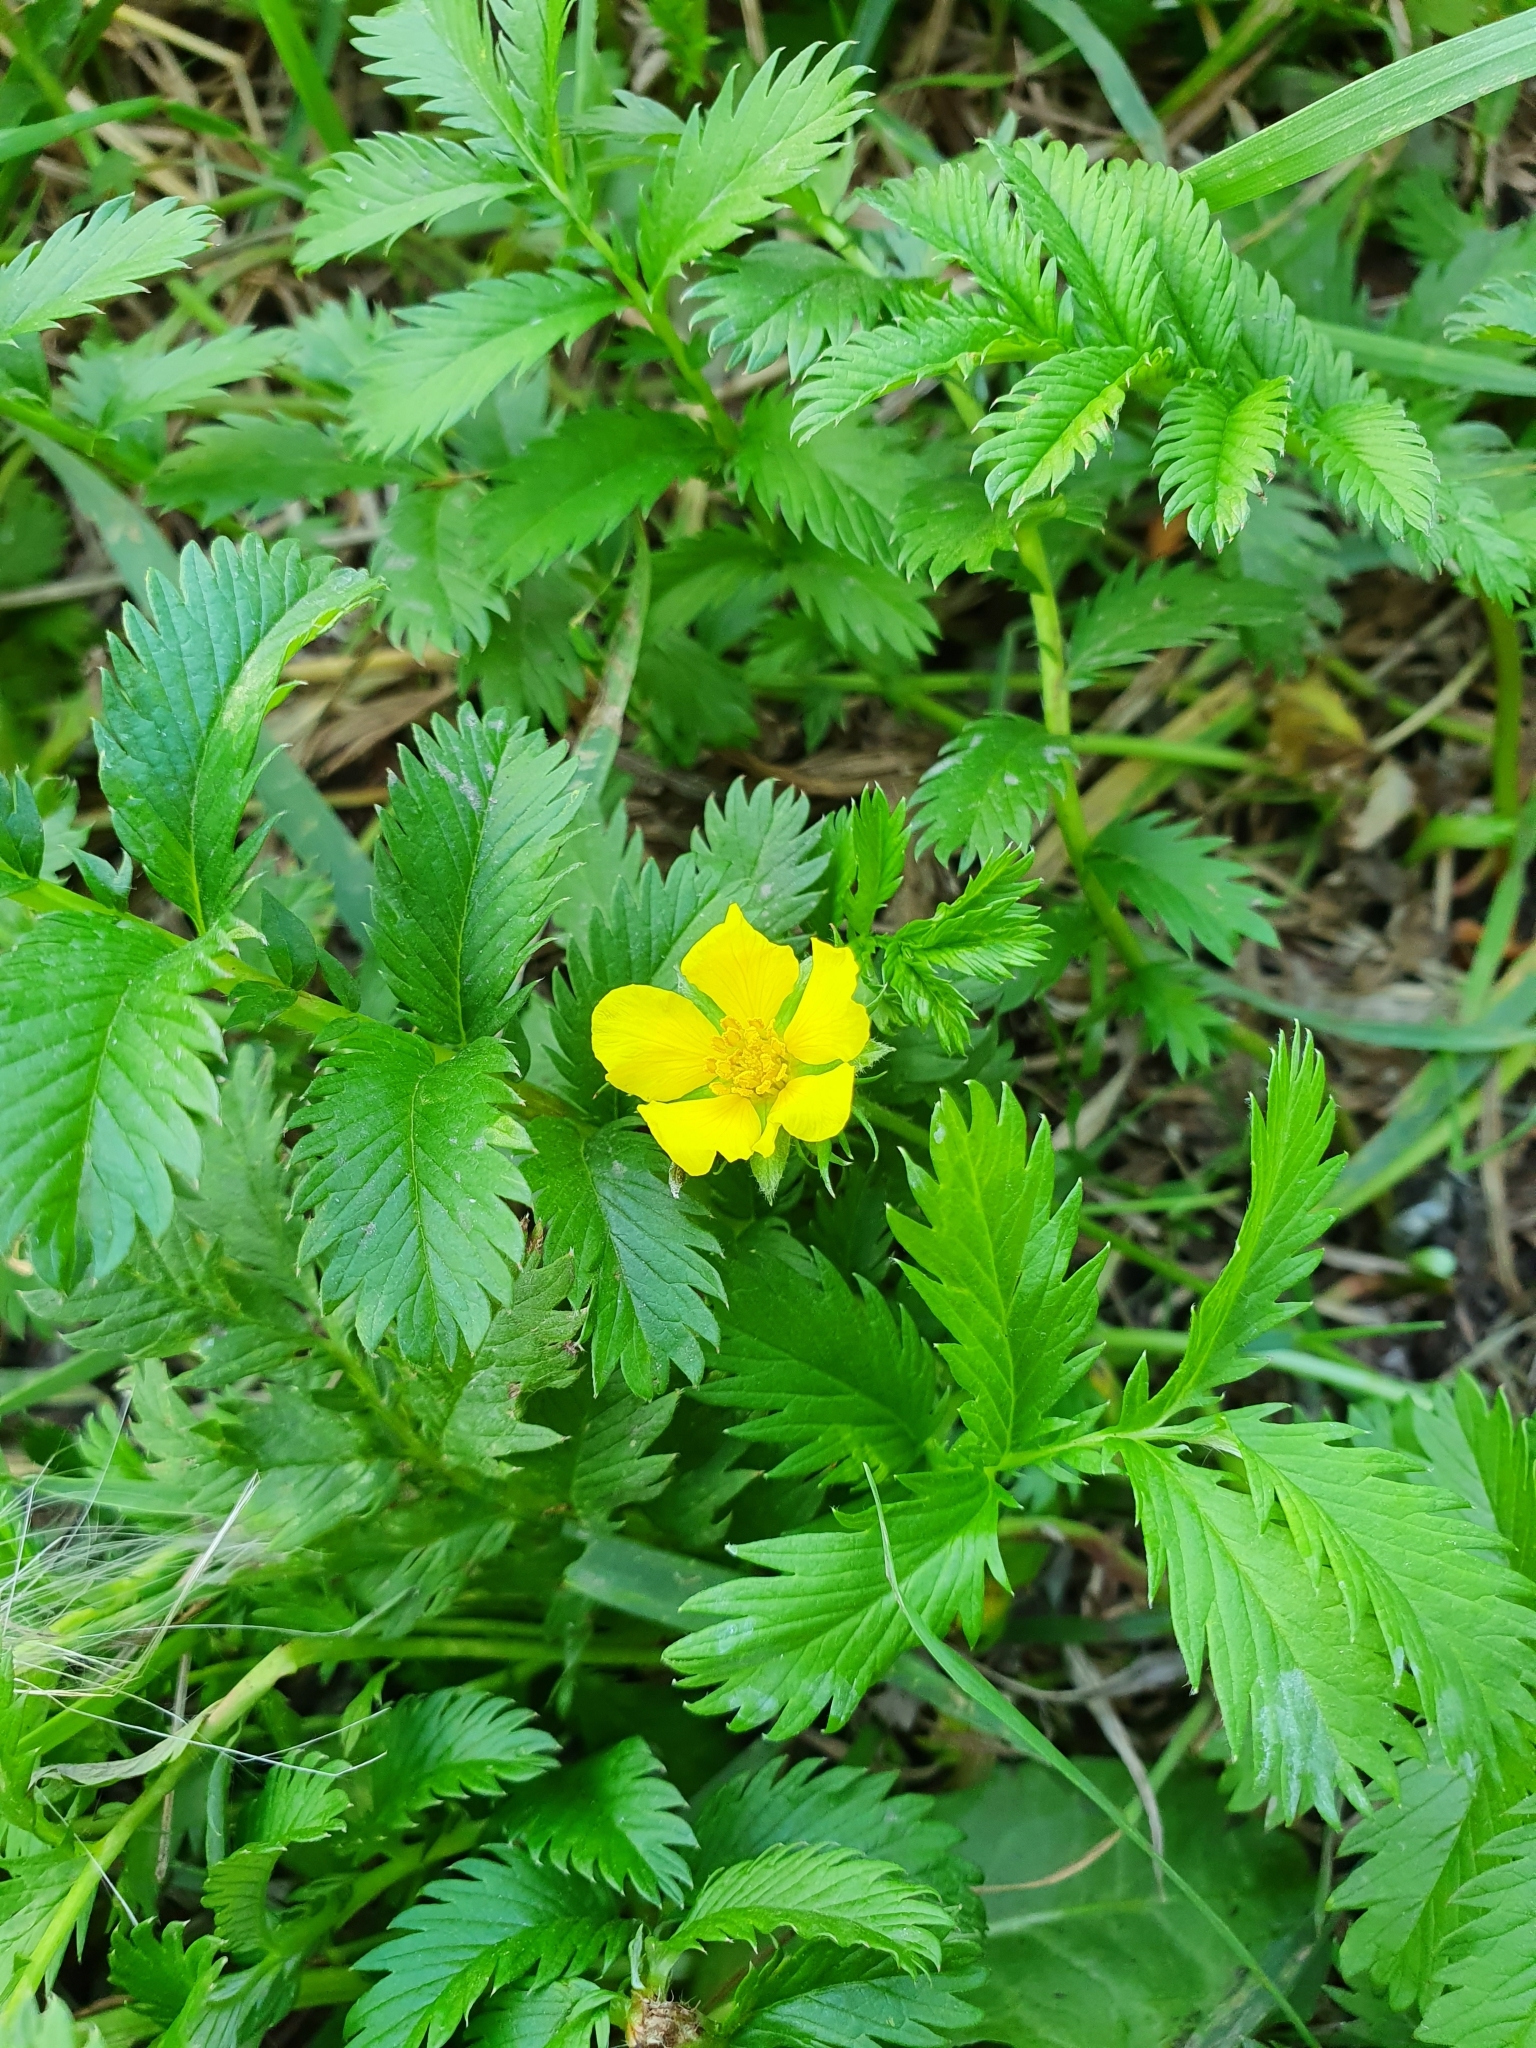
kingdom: Plantae
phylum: Tracheophyta
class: Magnoliopsida
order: Rosales
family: Rosaceae
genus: Argentina
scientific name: Argentina anserina
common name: Common silverweed
